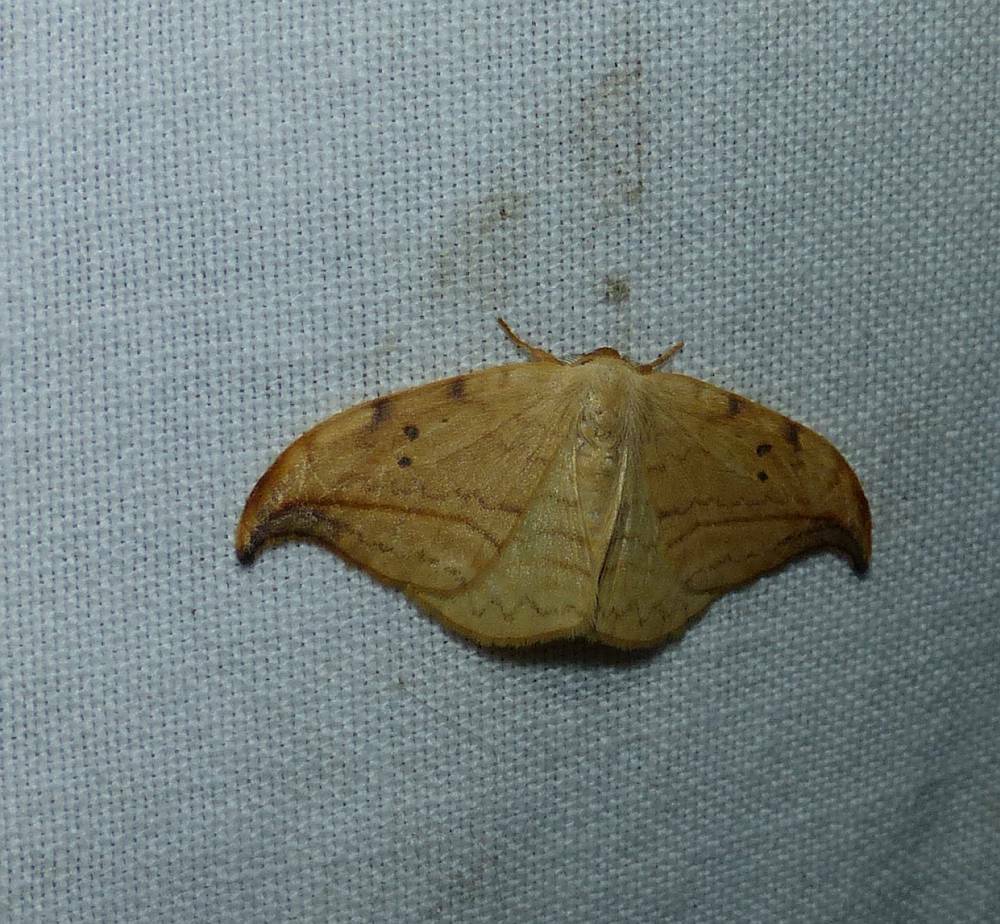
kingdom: Animalia
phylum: Arthropoda
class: Insecta
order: Lepidoptera
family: Drepanidae
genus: Drepana
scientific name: Drepana arcuata
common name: Arched hooktip moth
